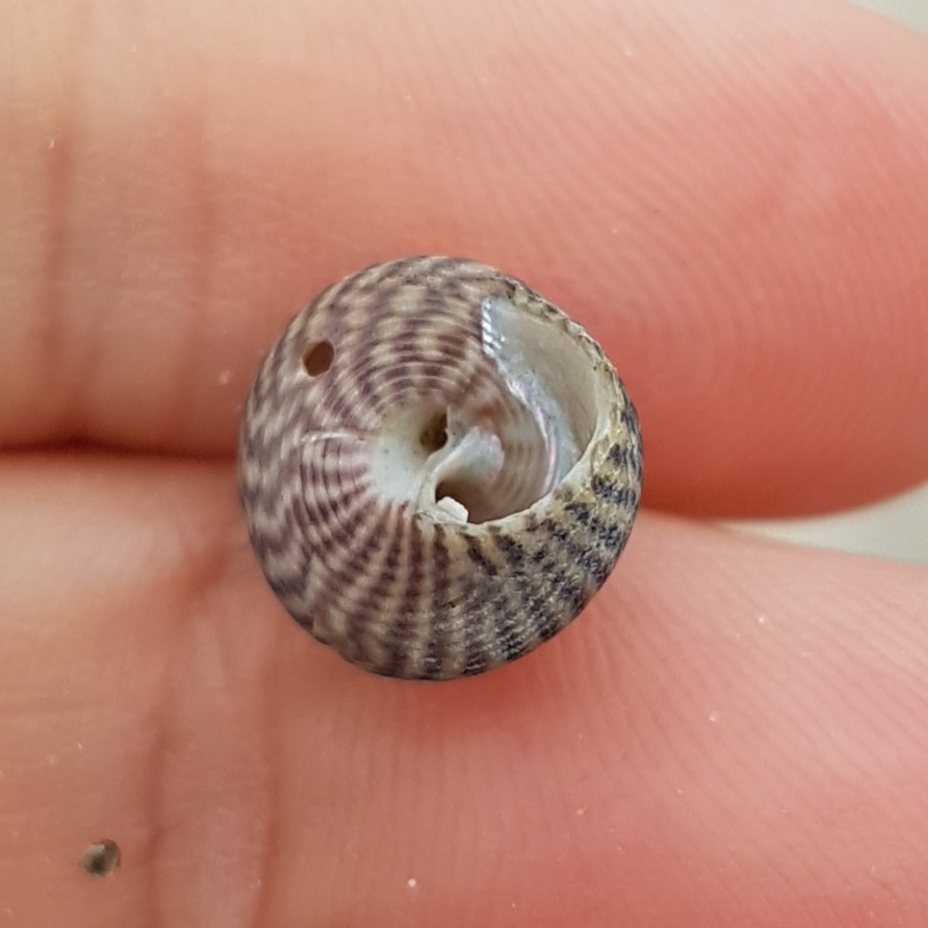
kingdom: Animalia
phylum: Mollusca
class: Gastropoda
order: Trochida
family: Trochidae
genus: Steromphala
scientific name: Steromphala cineraria
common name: Grey top shell
